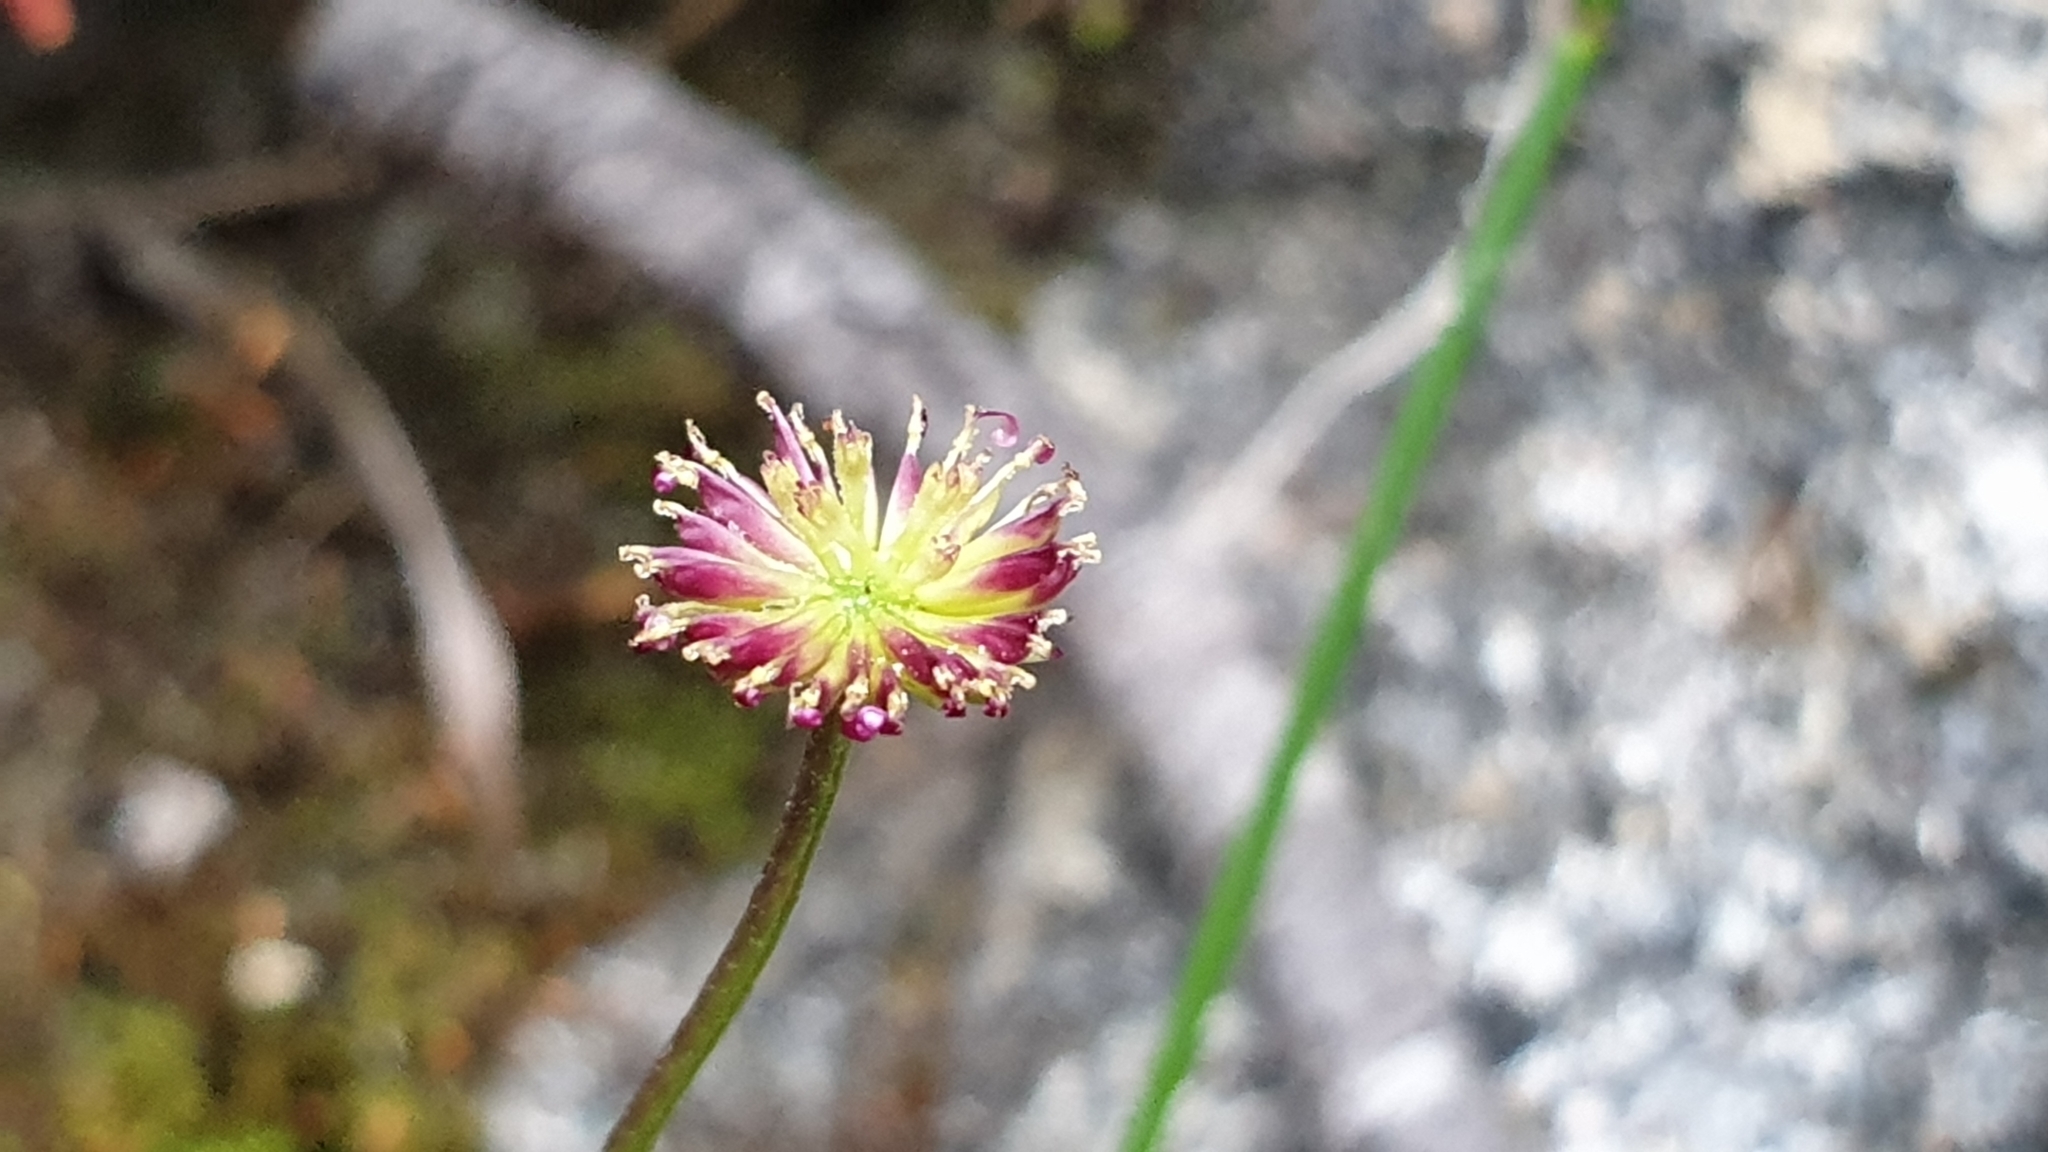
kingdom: Plantae
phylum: Tracheophyta
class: Magnoliopsida
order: Asterales
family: Asteraceae
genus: Lagenophora
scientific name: Lagenophora brachyglossa
